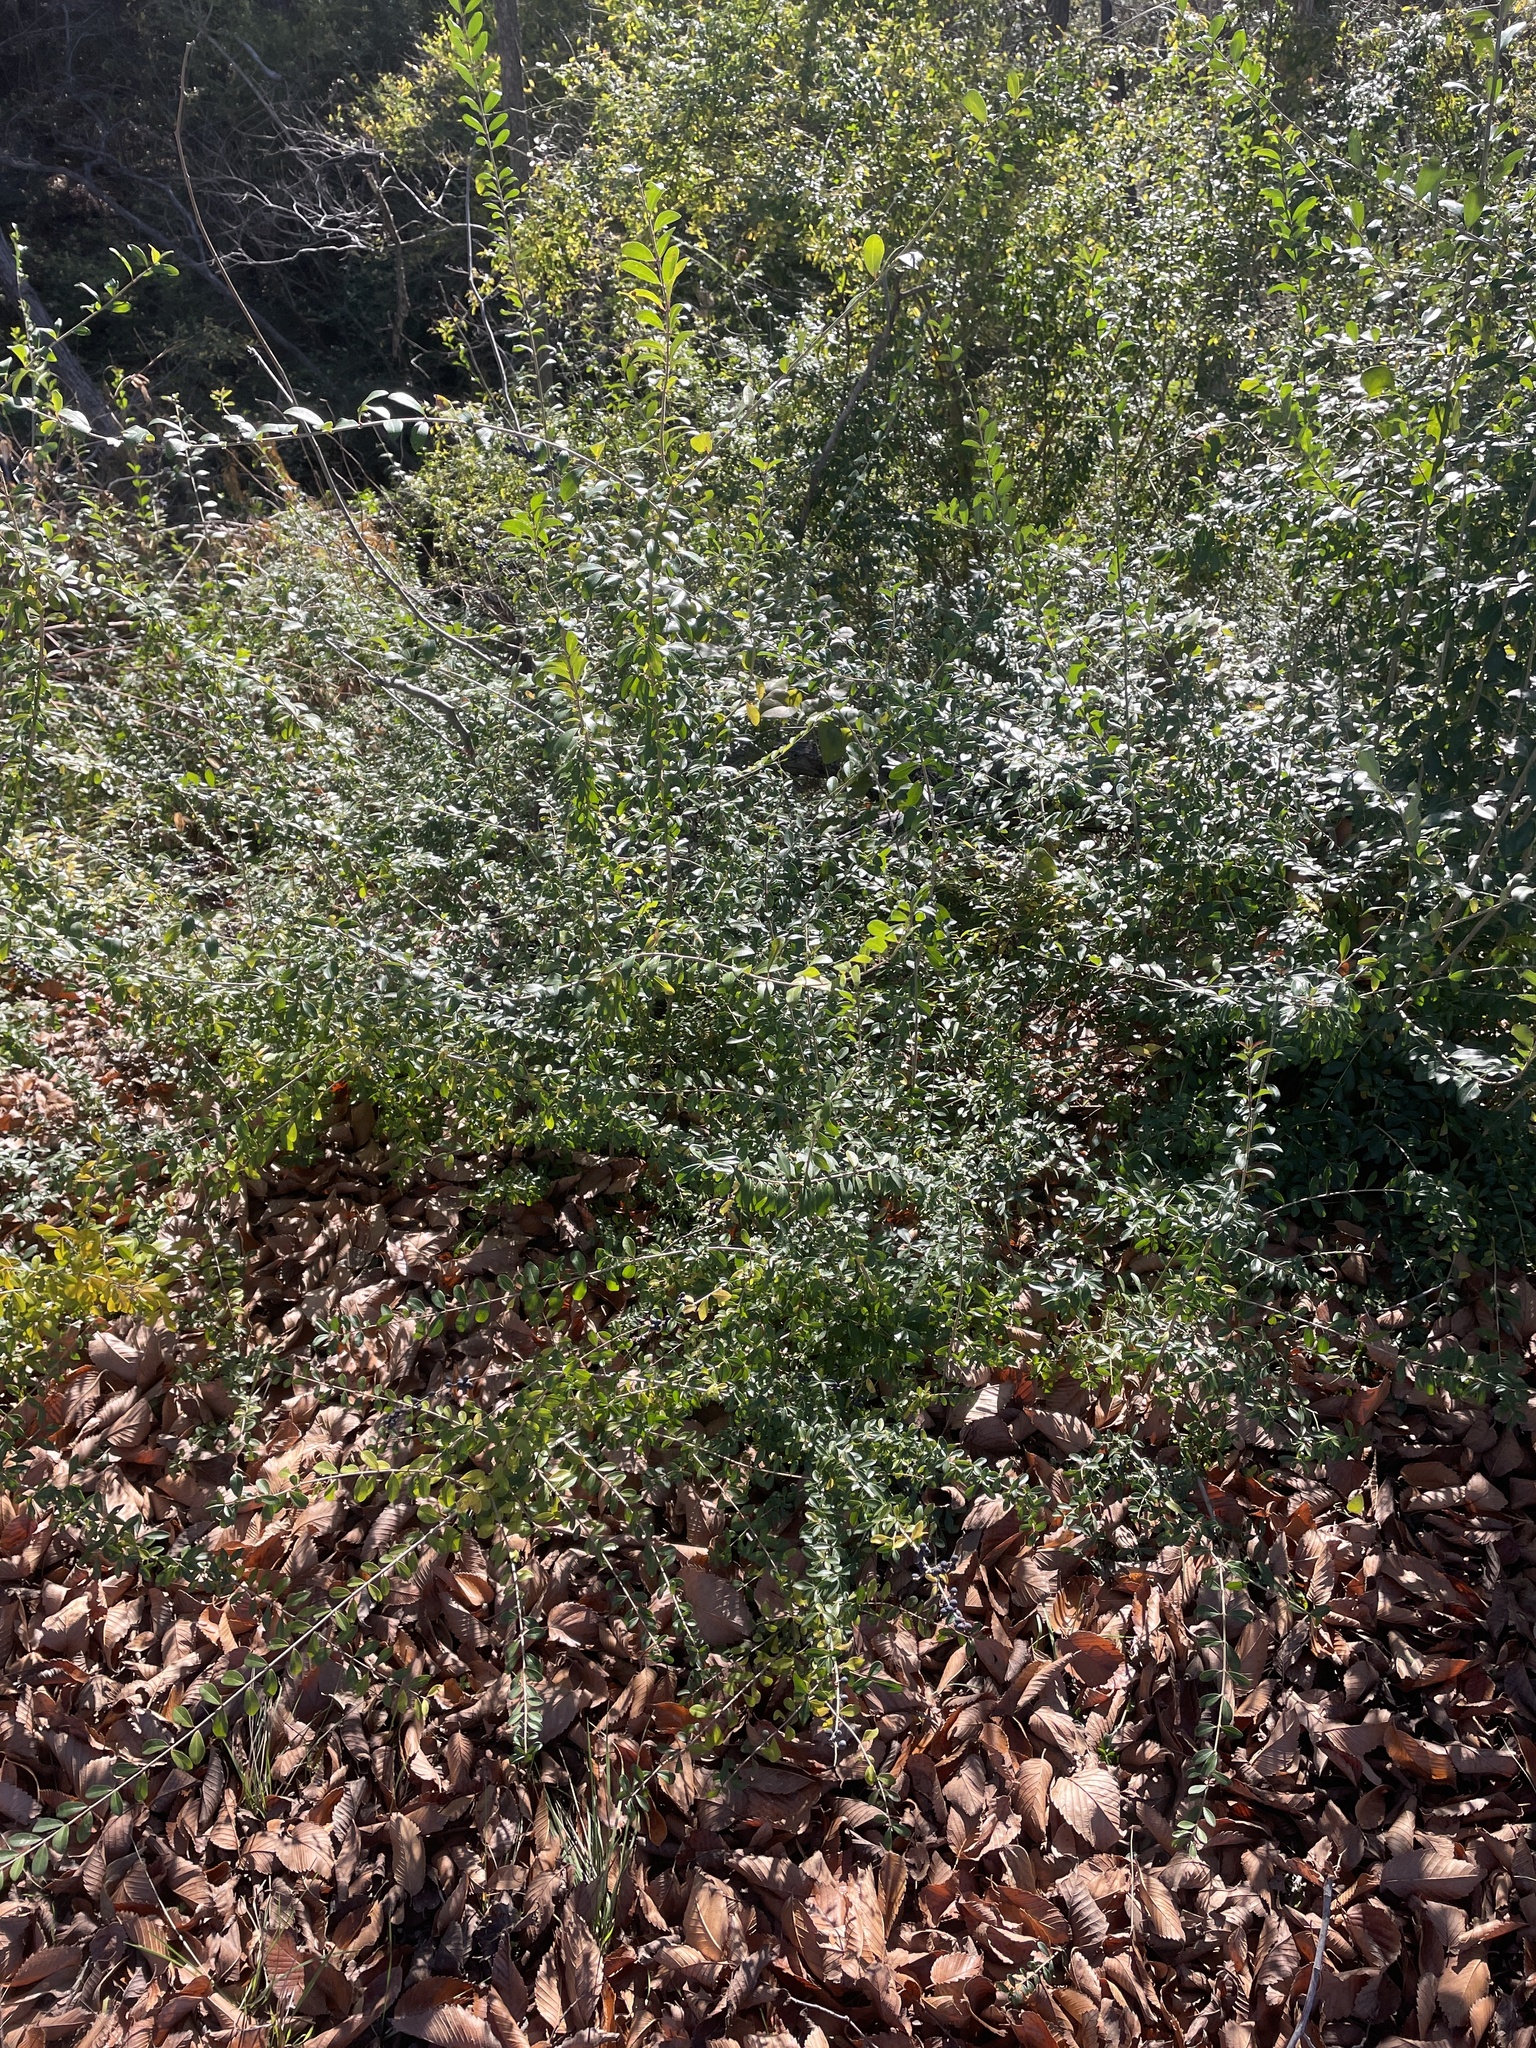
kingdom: Plantae
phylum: Tracheophyta
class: Magnoliopsida
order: Lamiales
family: Oleaceae
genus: Ligustrum
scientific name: Ligustrum quihoui
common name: Waxyleaf privet
